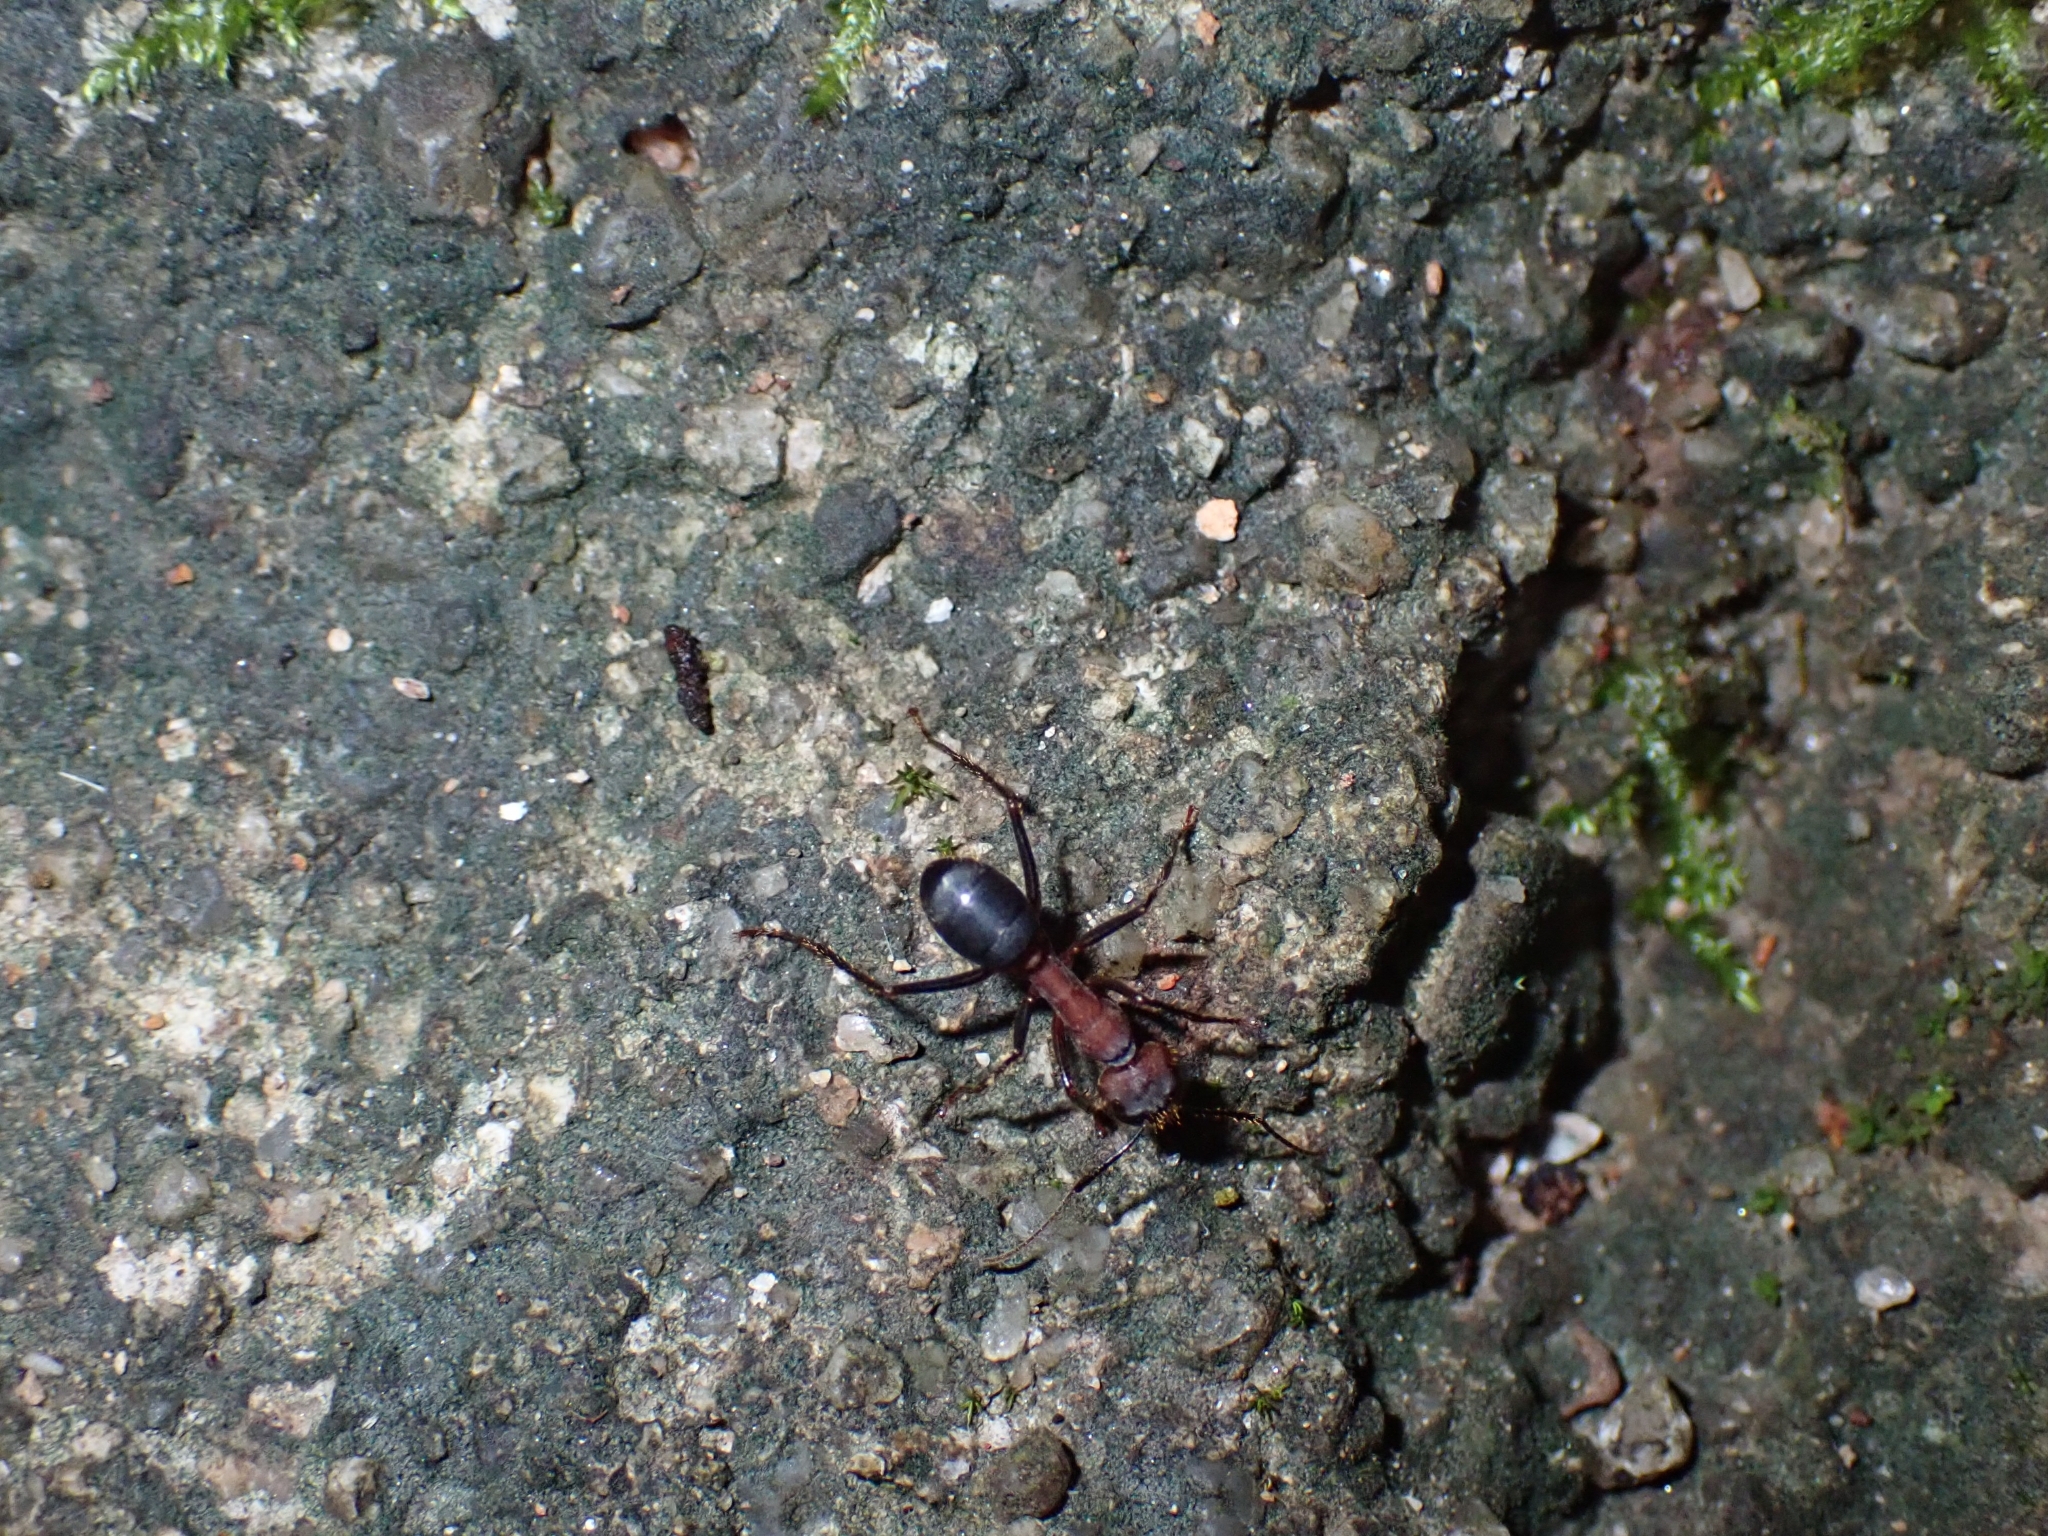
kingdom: Animalia
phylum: Arthropoda
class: Insecta
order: Hymenoptera
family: Formicidae
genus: Camponotus
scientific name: Camponotus irritabilis
